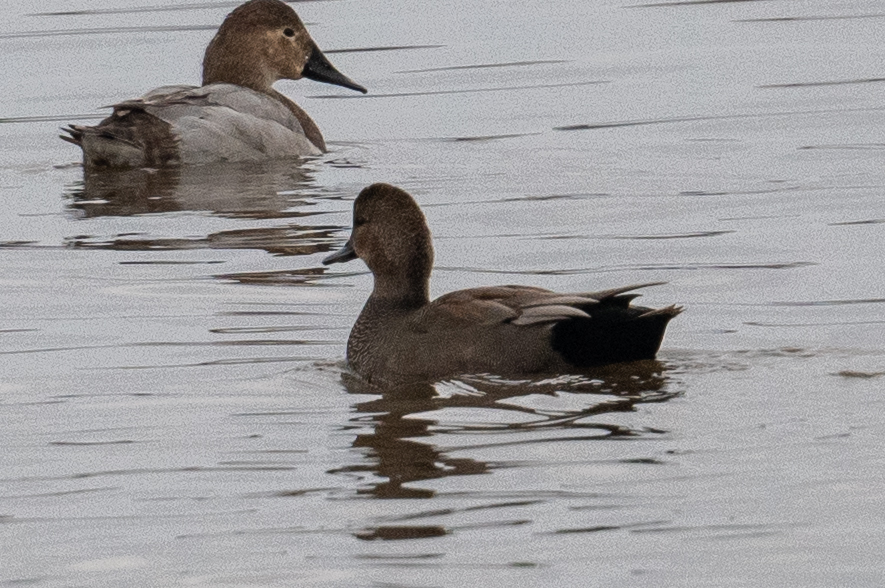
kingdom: Animalia
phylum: Chordata
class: Aves
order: Anseriformes
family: Anatidae
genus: Mareca
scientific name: Mareca strepera
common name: Gadwall
